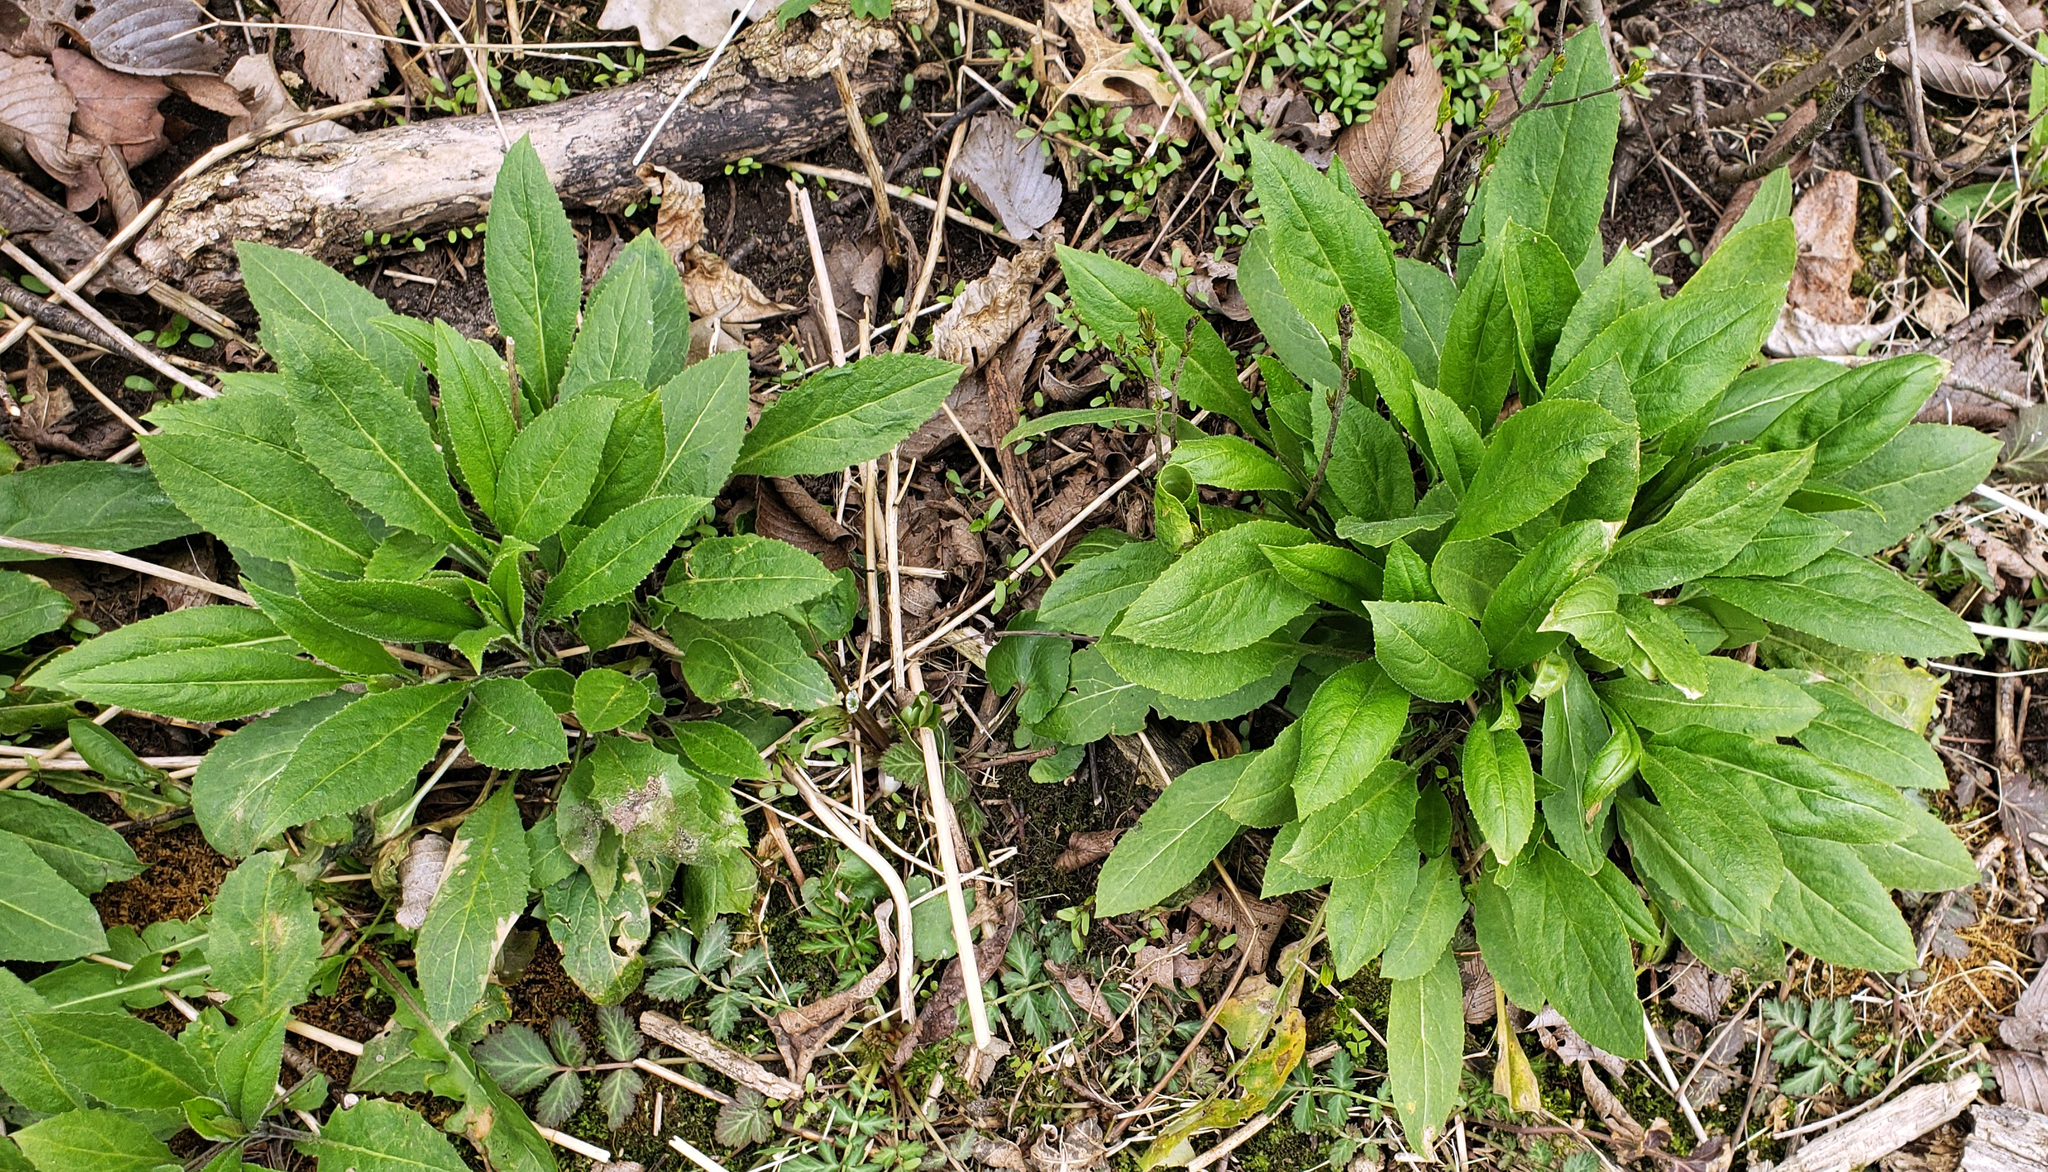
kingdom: Plantae
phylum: Tracheophyta
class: Magnoliopsida
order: Brassicales
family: Brassicaceae
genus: Hesperis
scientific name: Hesperis matronalis
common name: Dame's-violet
